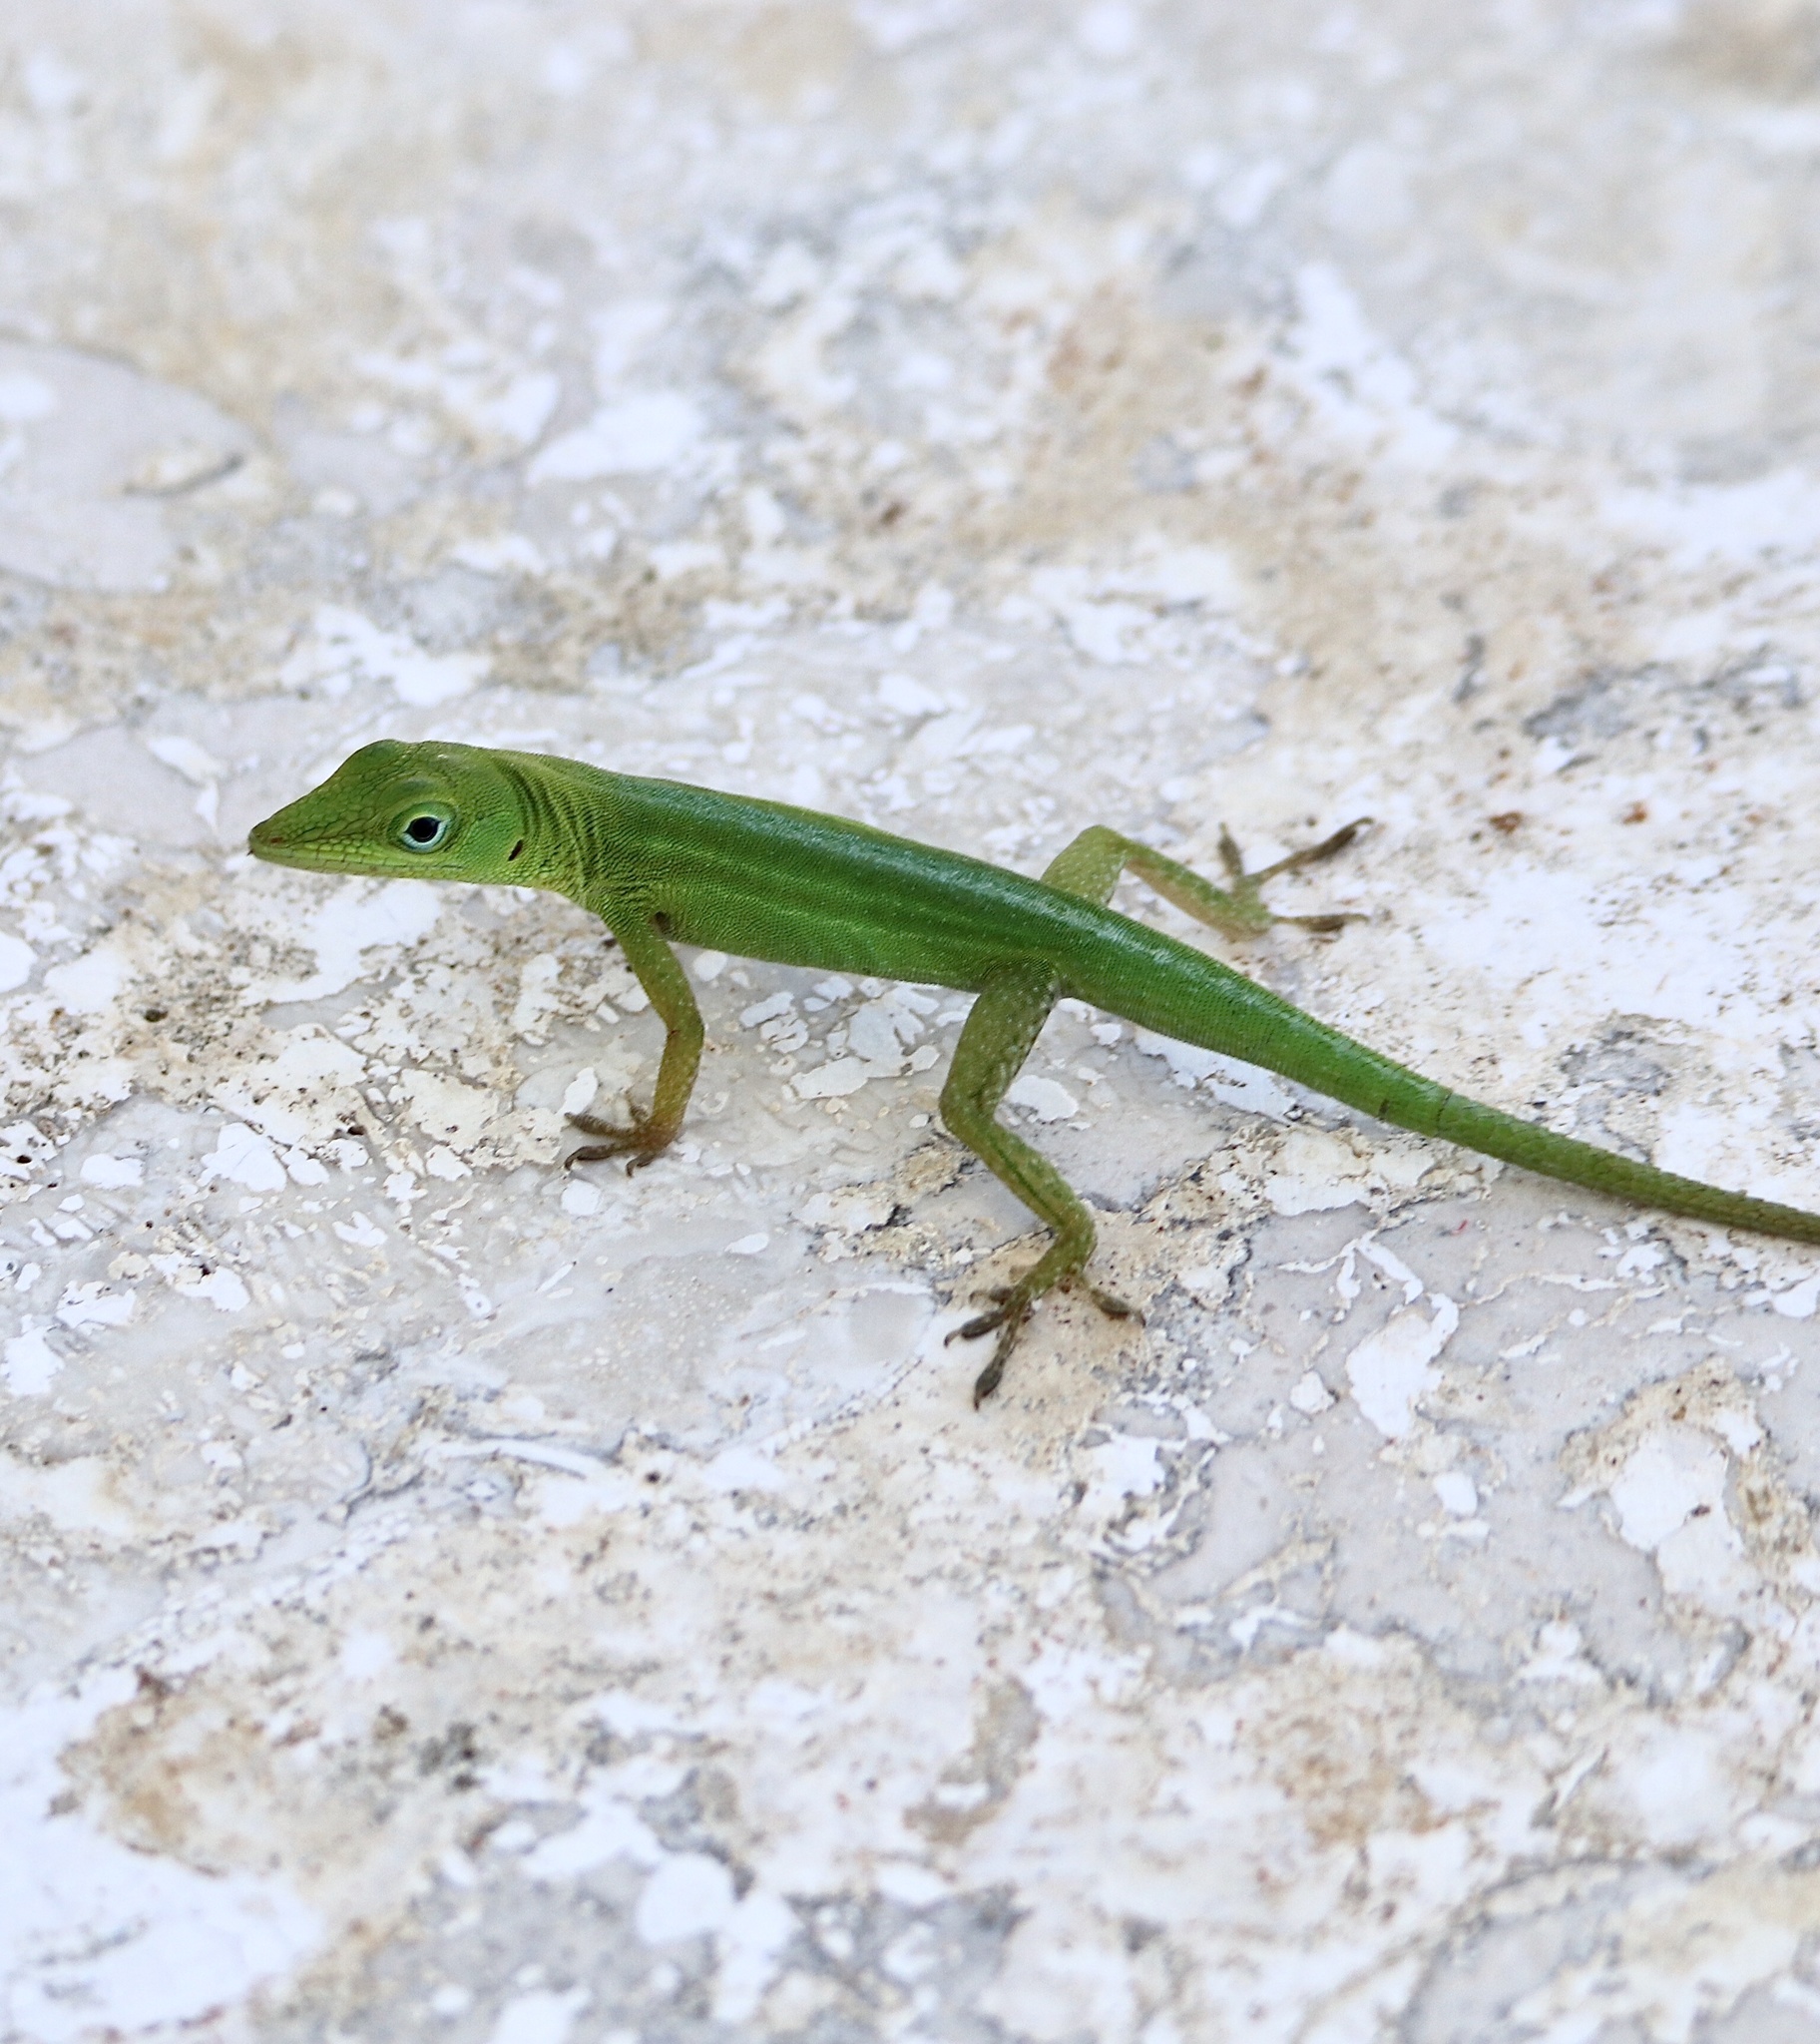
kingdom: Animalia
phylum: Chordata
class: Squamata
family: Dactyloidae
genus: Anolis
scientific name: Anolis callainus
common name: Dominican green anole
